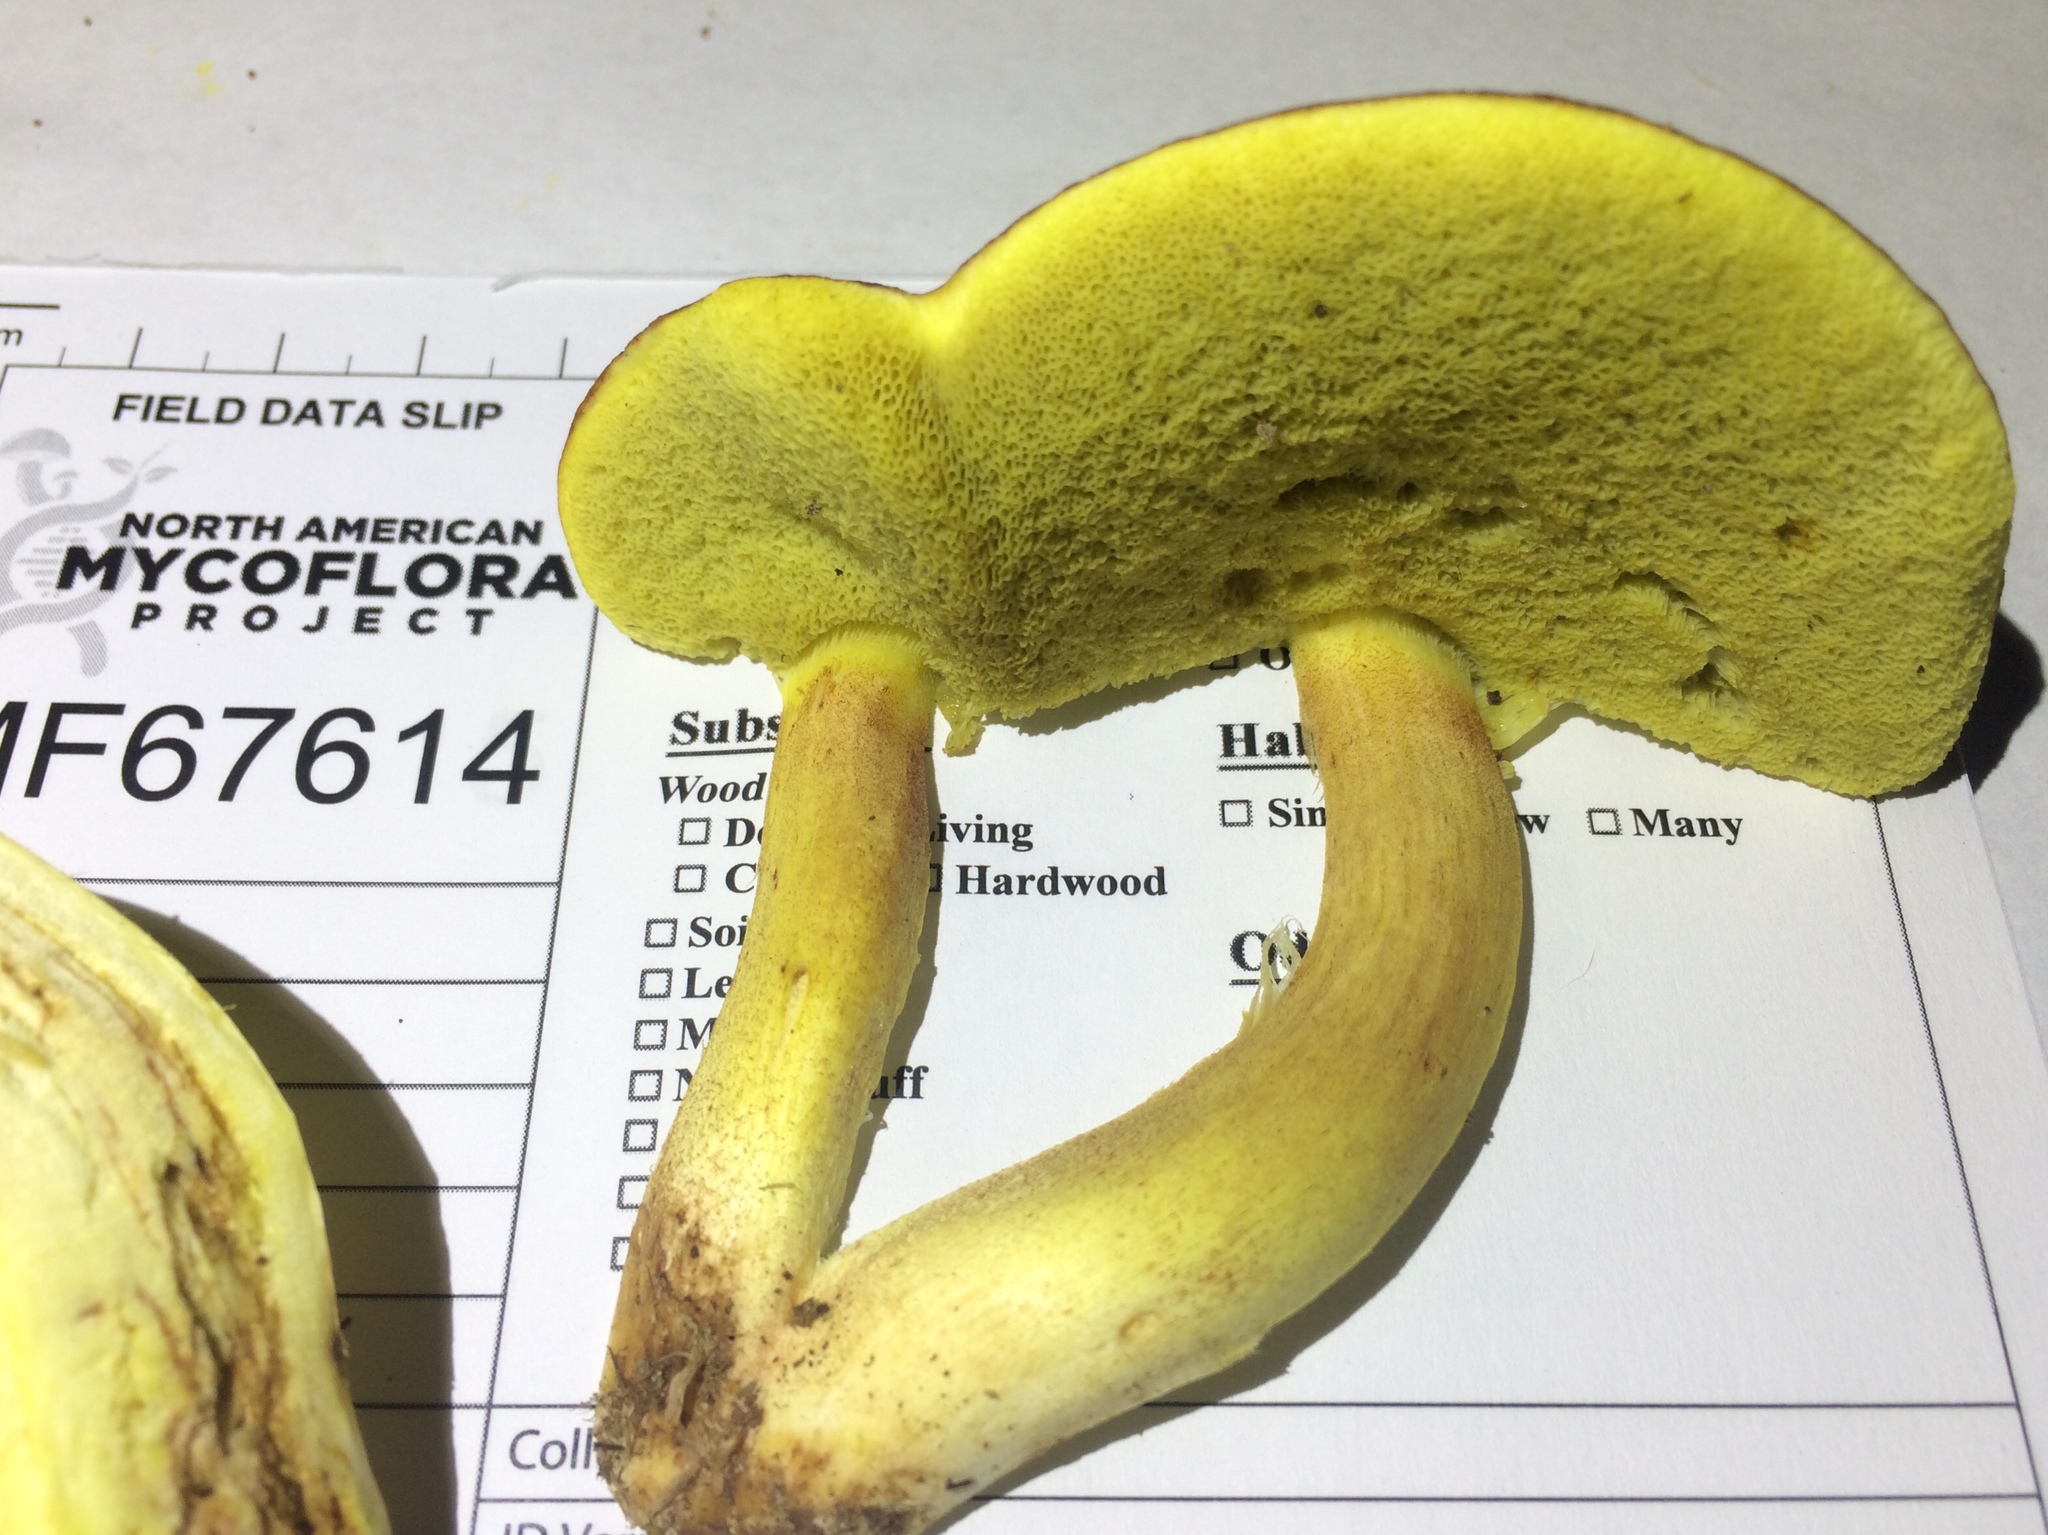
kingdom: Fungi
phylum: Basidiomycota
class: Agaricomycetes
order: Boletales
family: Boletaceae
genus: Hemileccinum
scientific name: Hemileccinum subglabripes
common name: Smoothish-stemmed bolete
